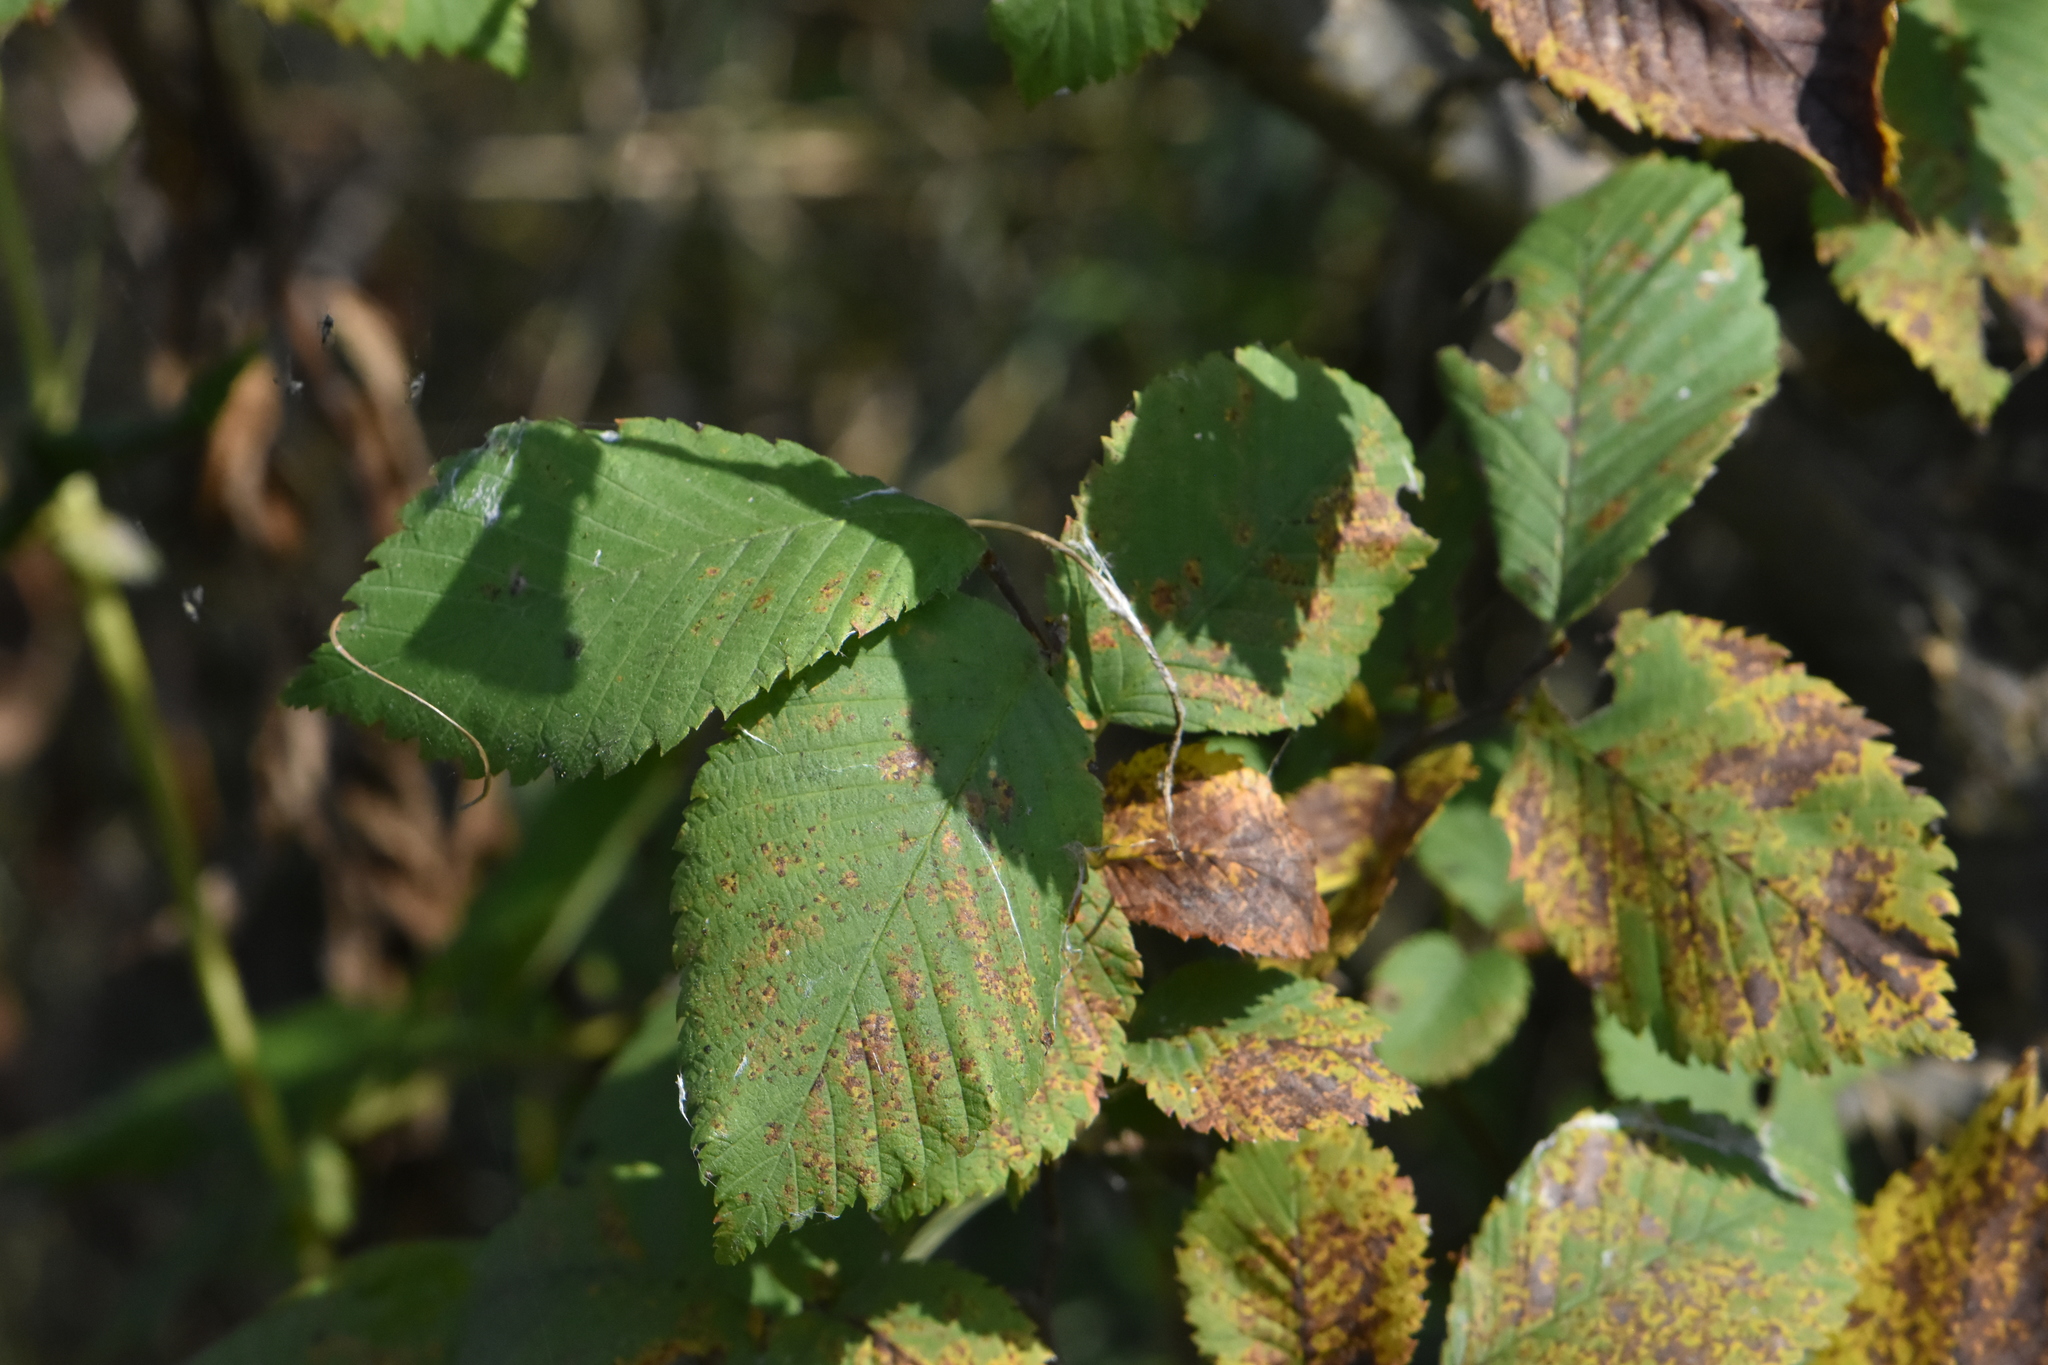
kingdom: Plantae
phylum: Tracheophyta
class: Magnoliopsida
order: Rosales
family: Ulmaceae
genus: Ulmus
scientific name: Ulmus laevis
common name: European white-elm
